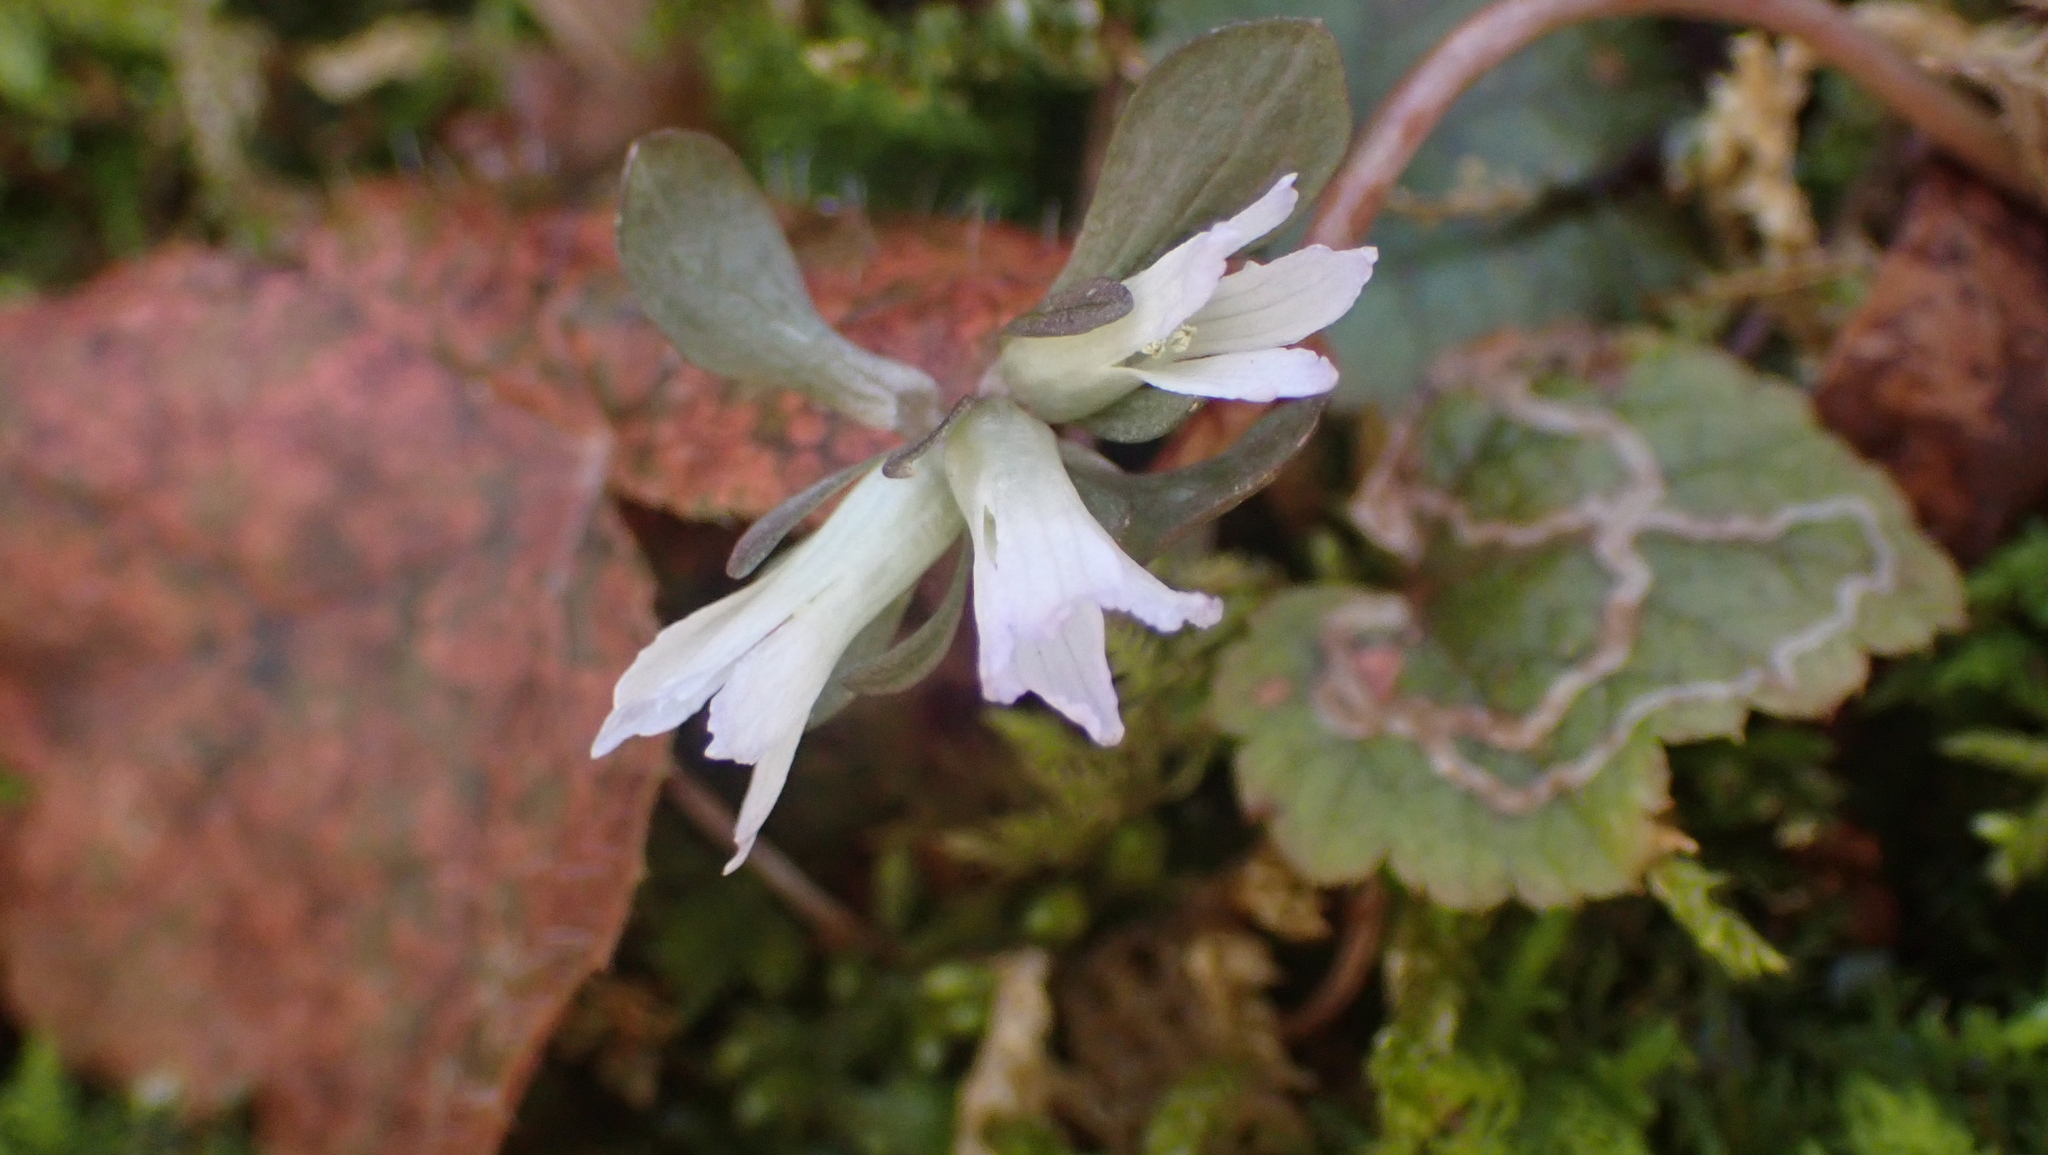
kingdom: Plantae
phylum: Tracheophyta
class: Magnoliopsida
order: Gentianales
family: Gentianaceae
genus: Obolaria
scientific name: Obolaria virginica
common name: Pennywort
